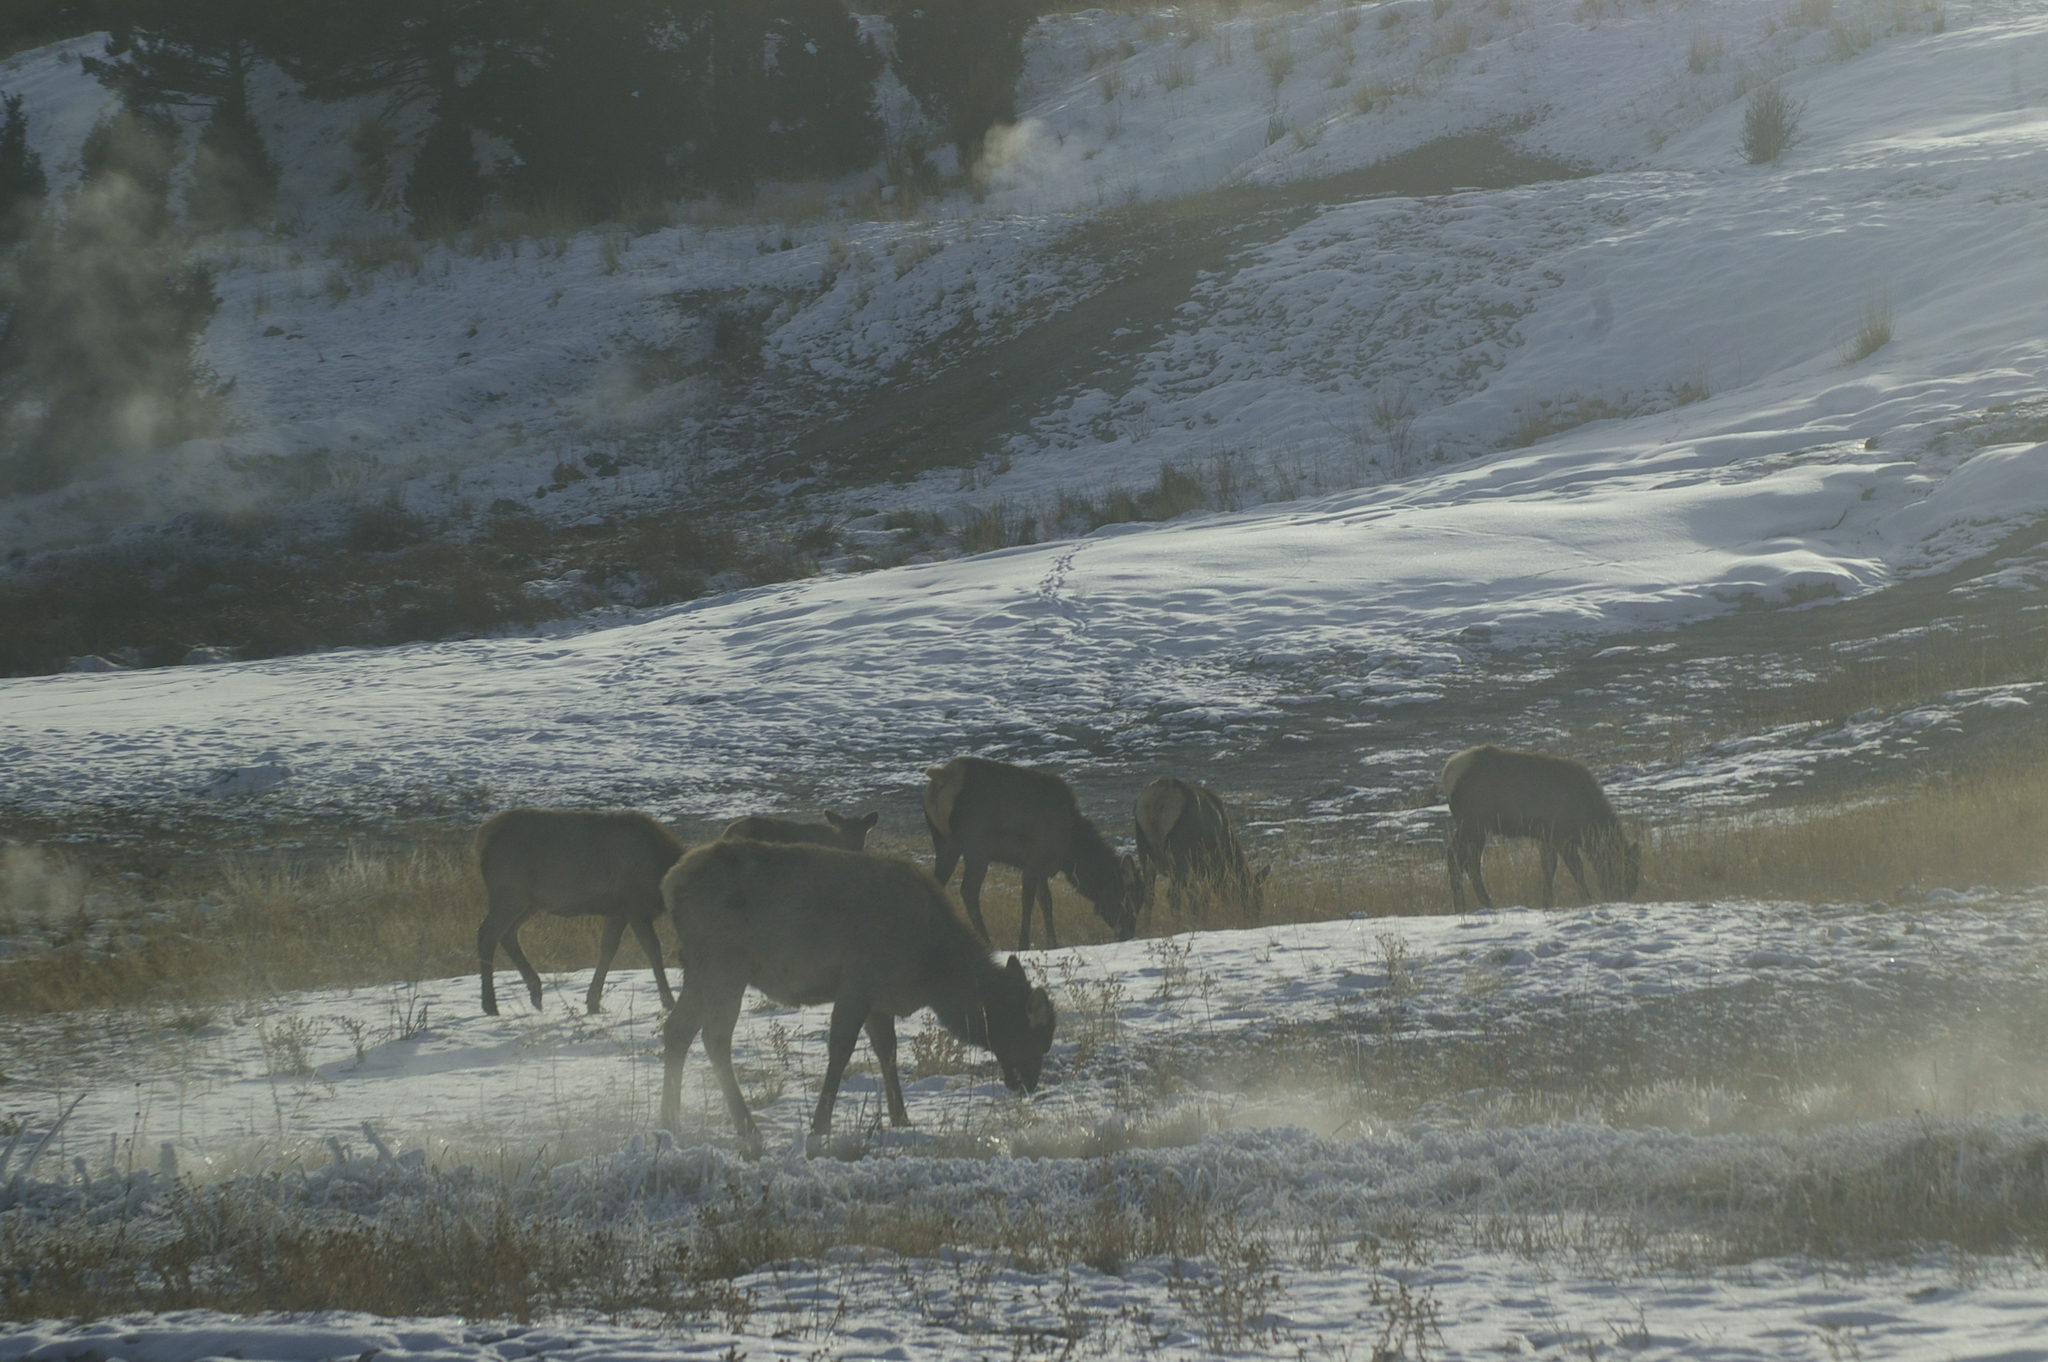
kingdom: Animalia
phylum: Chordata
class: Mammalia
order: Artiodactyla
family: Cervidae
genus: Cervus
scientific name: Cervus elaphus
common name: Red deer
